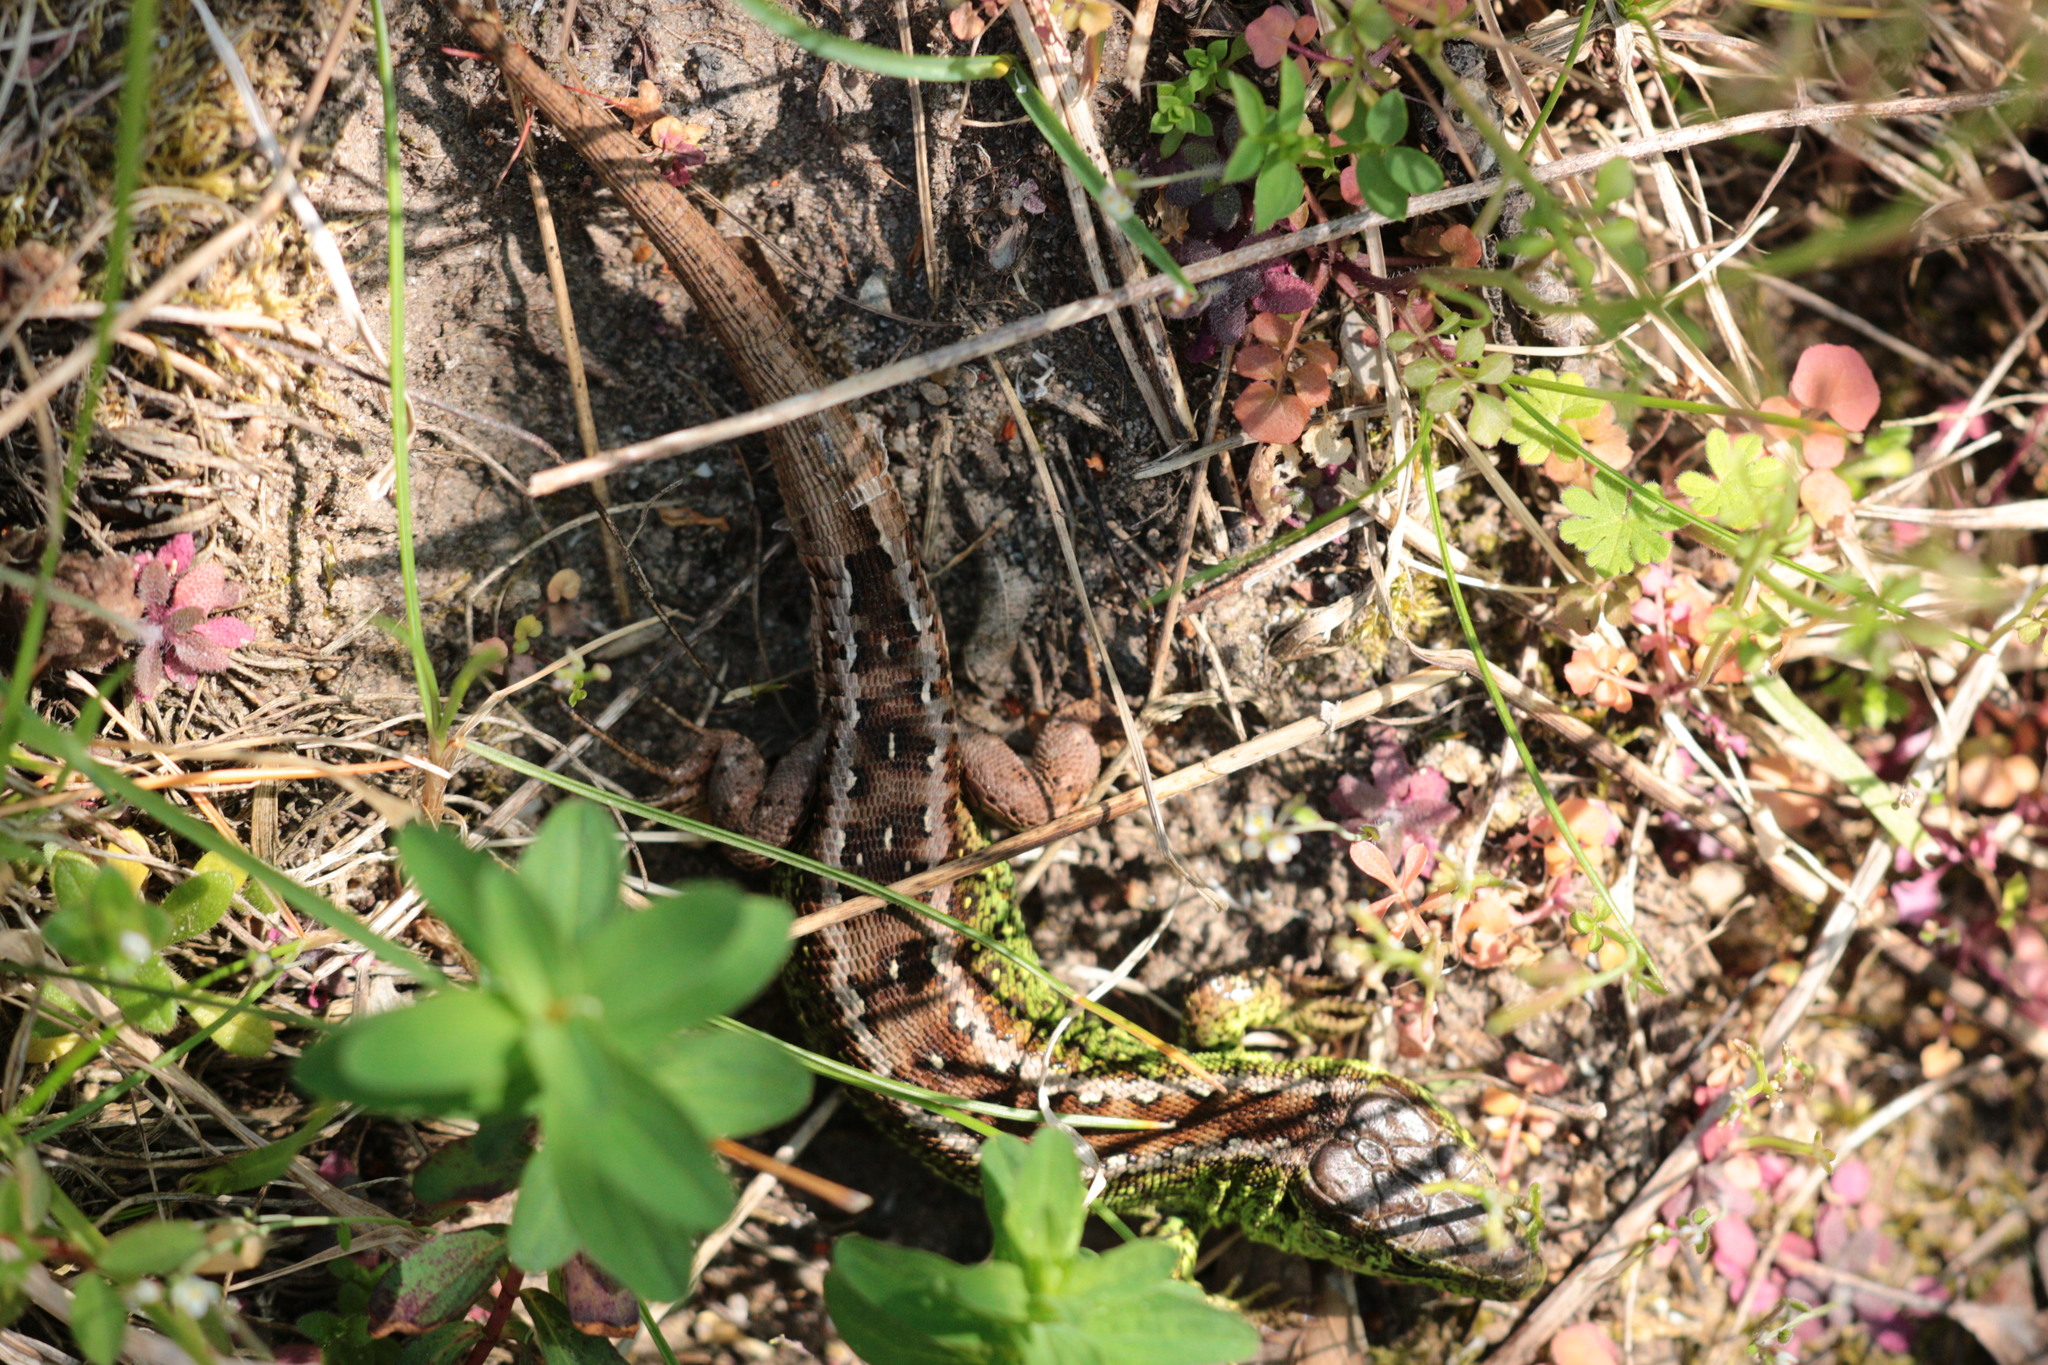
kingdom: Animalia
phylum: Chordata
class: Squamata
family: Lacertidae
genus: Lacerta
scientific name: Lacerta agilis
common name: Sand lizard
